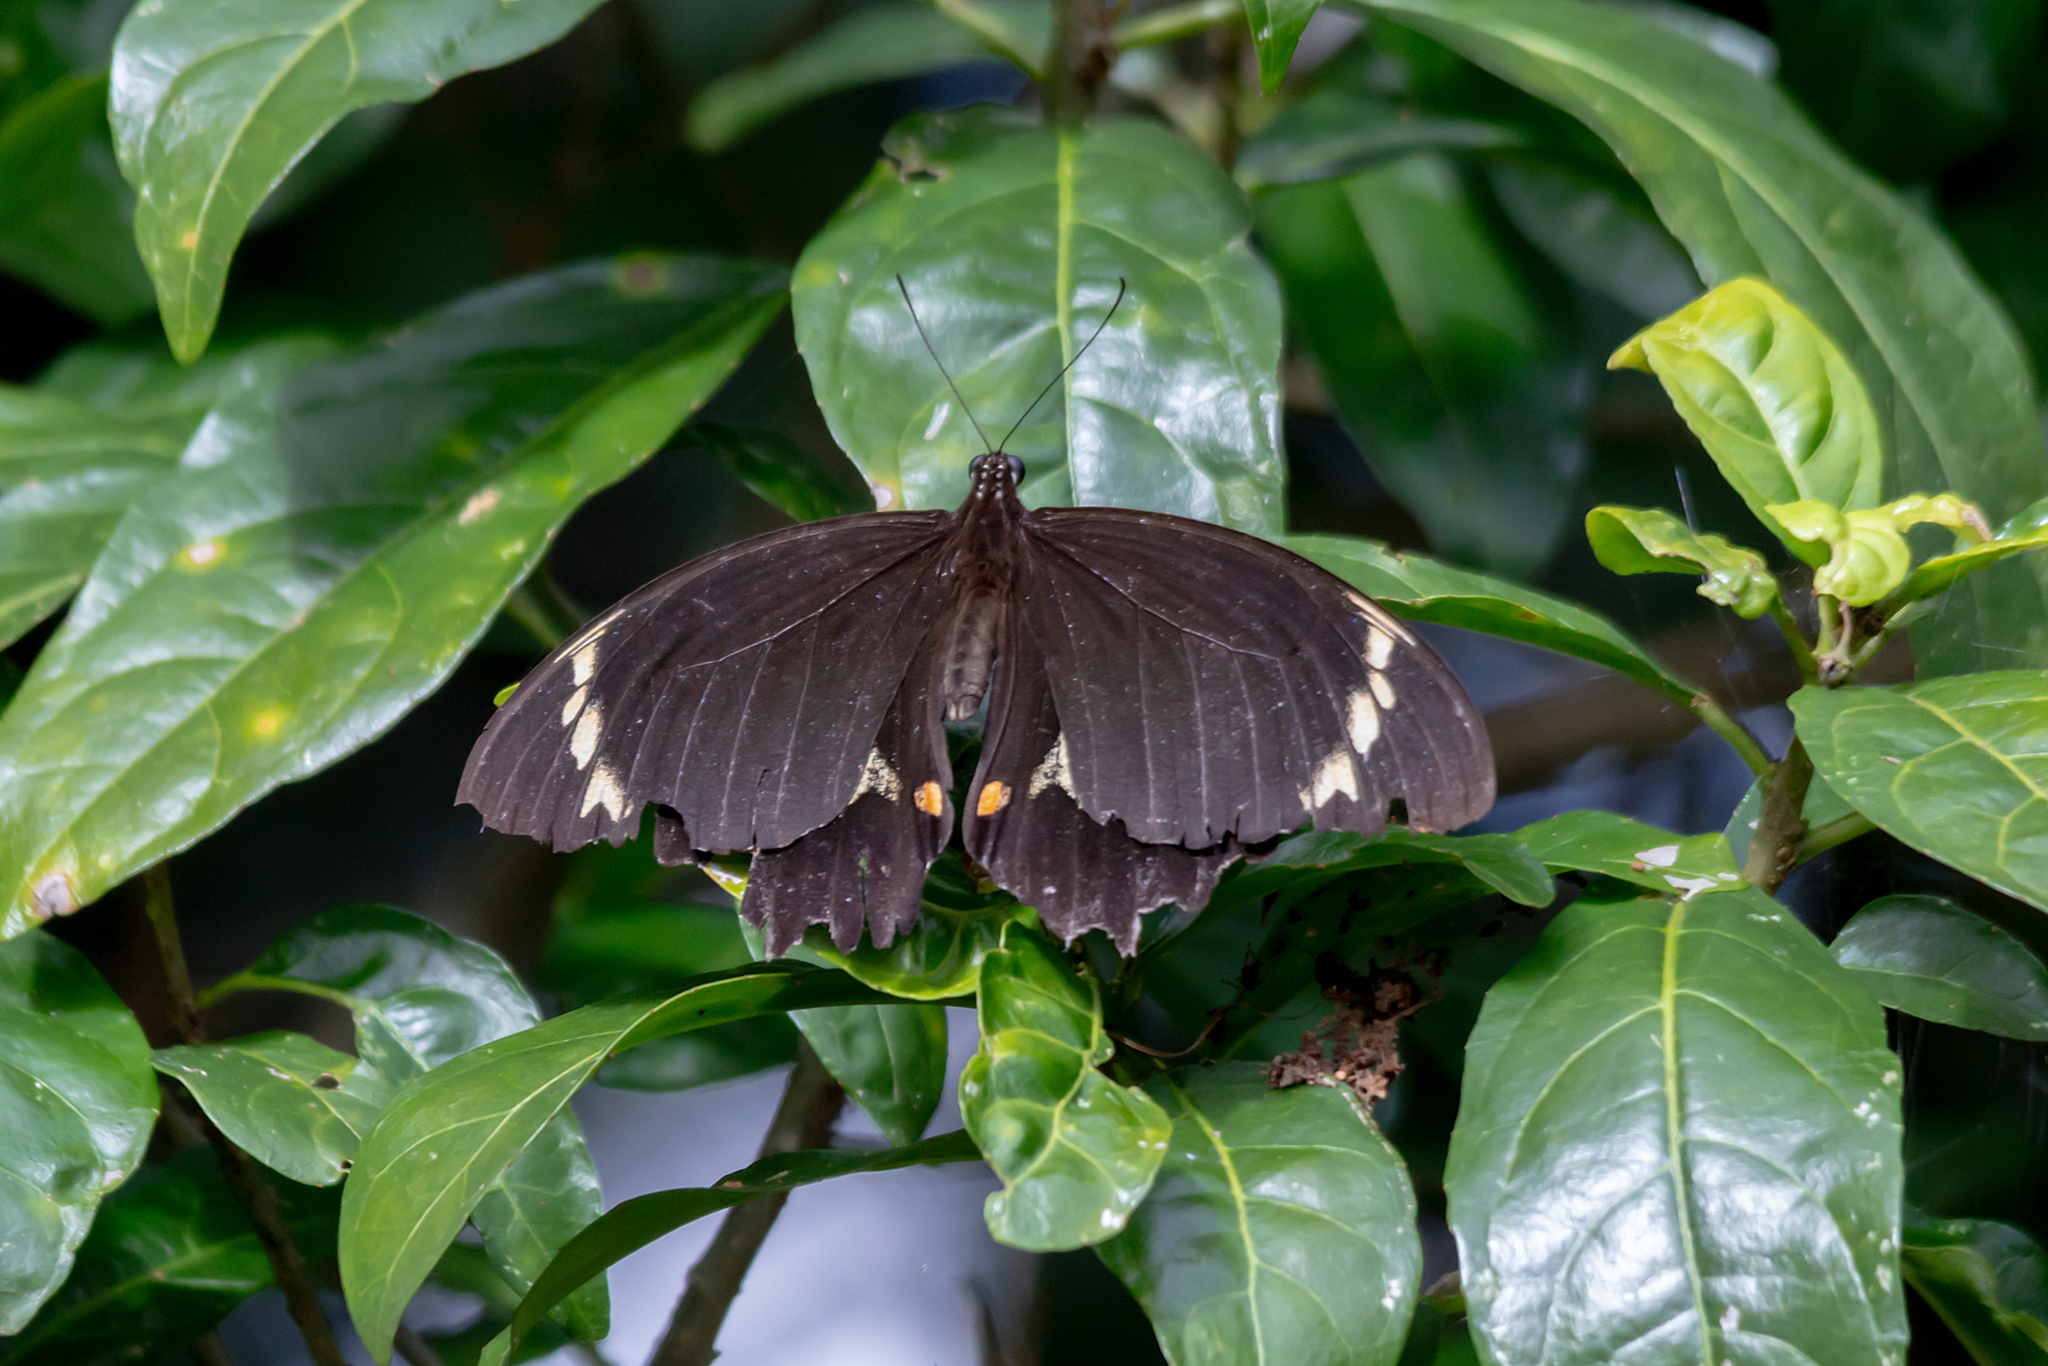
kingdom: Animalia
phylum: Arthropoda
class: Insecta
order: Lepidoptera
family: Papilionidae
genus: Papilio
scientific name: Papilio aegeus
